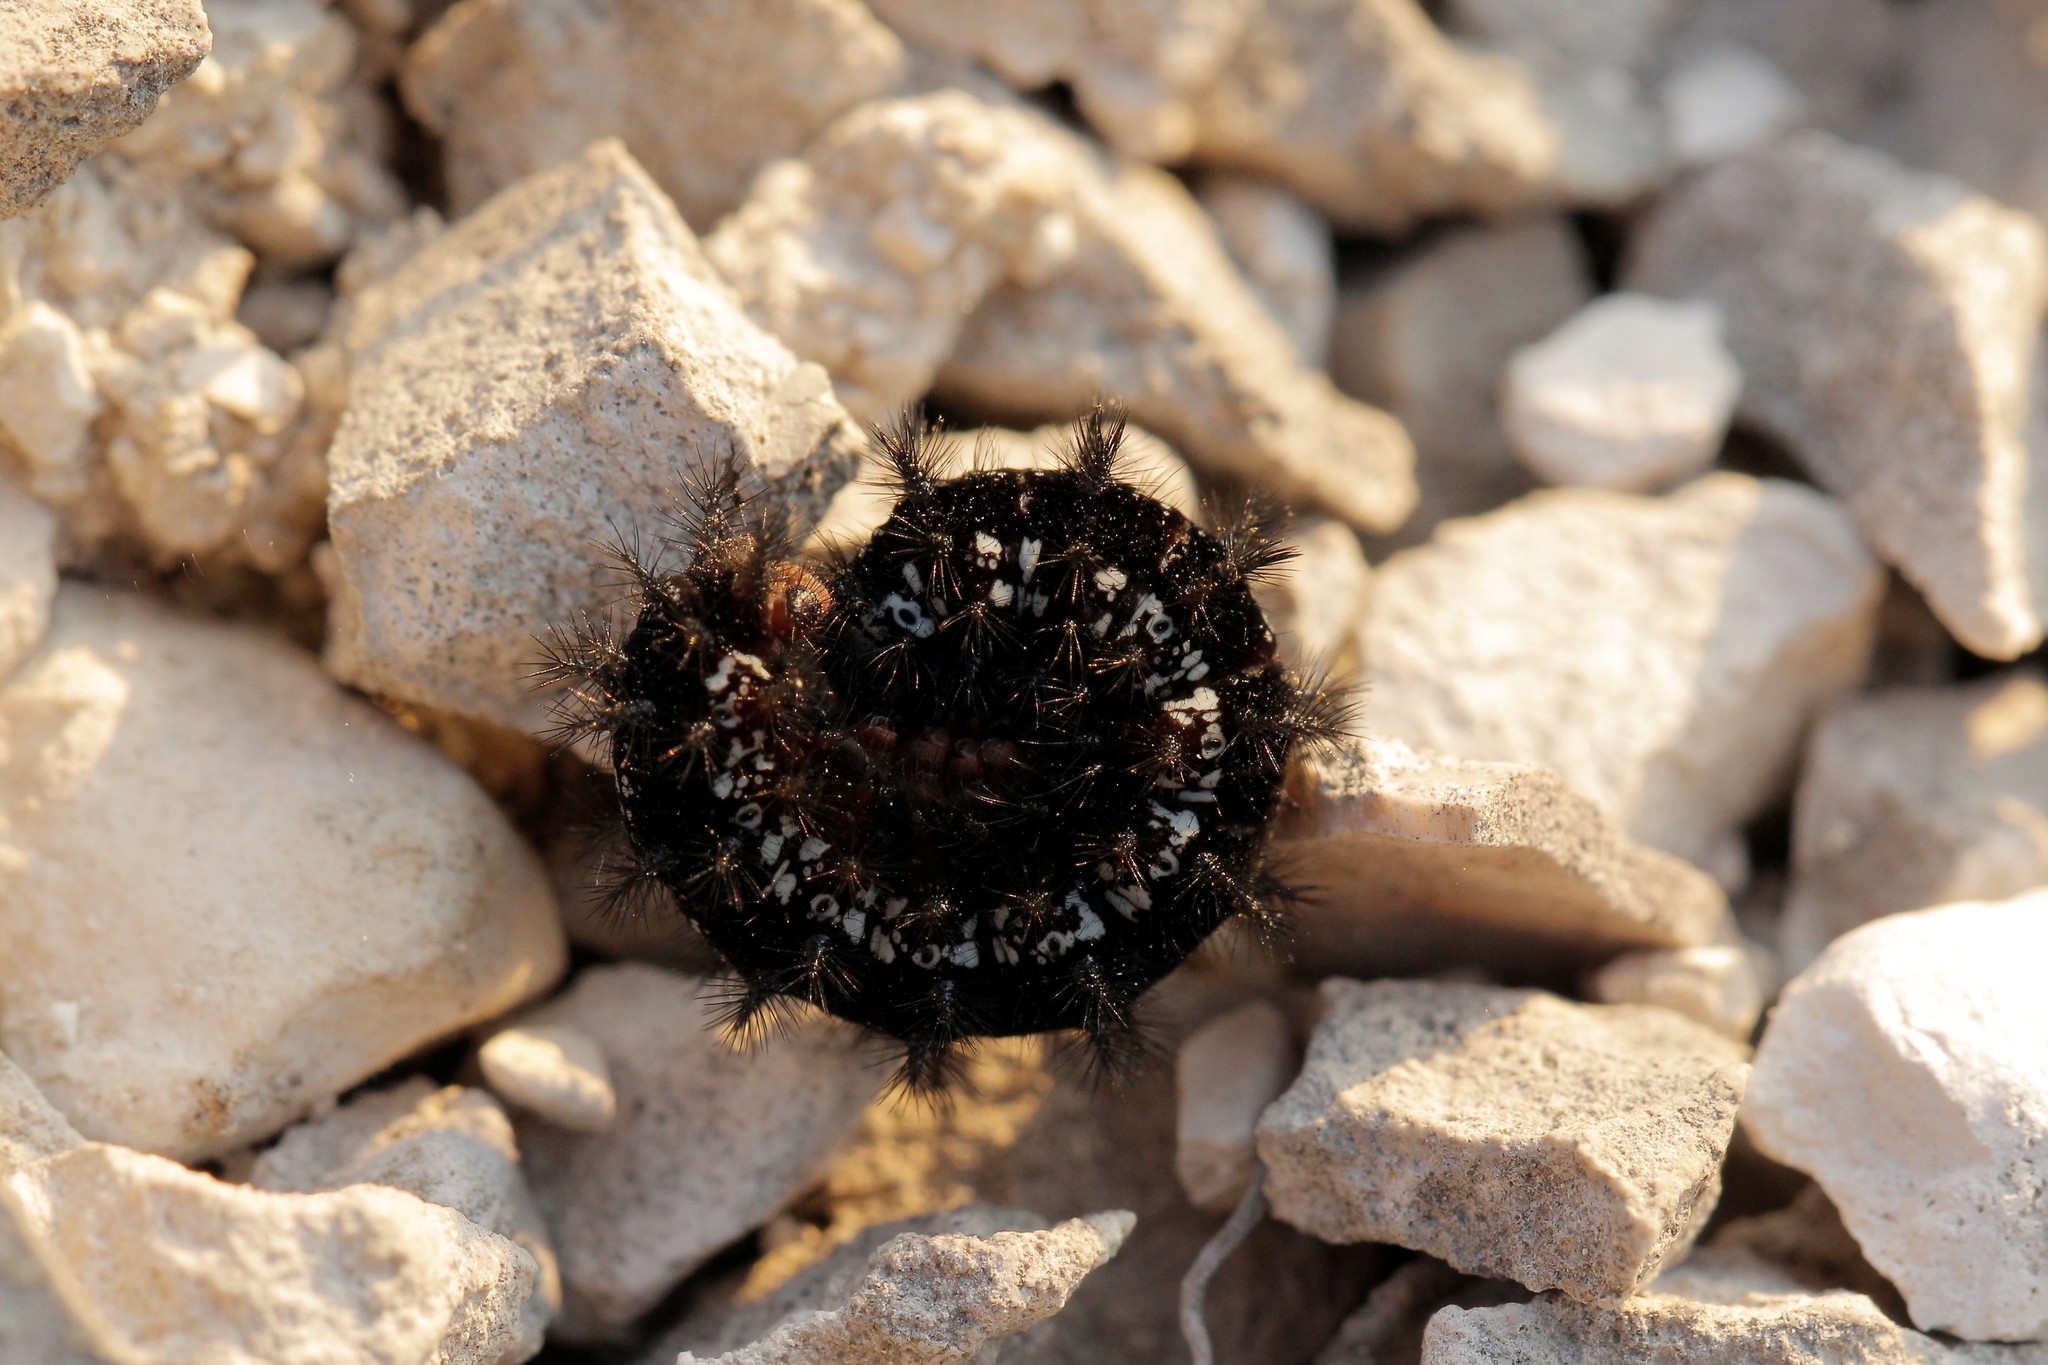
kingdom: Animalia
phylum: Arthropoda
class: Insecta
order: Lepidoptera
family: Nymphalidae
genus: Euphydryas
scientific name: Euphydryas aurinia
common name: Marsh fritillary
